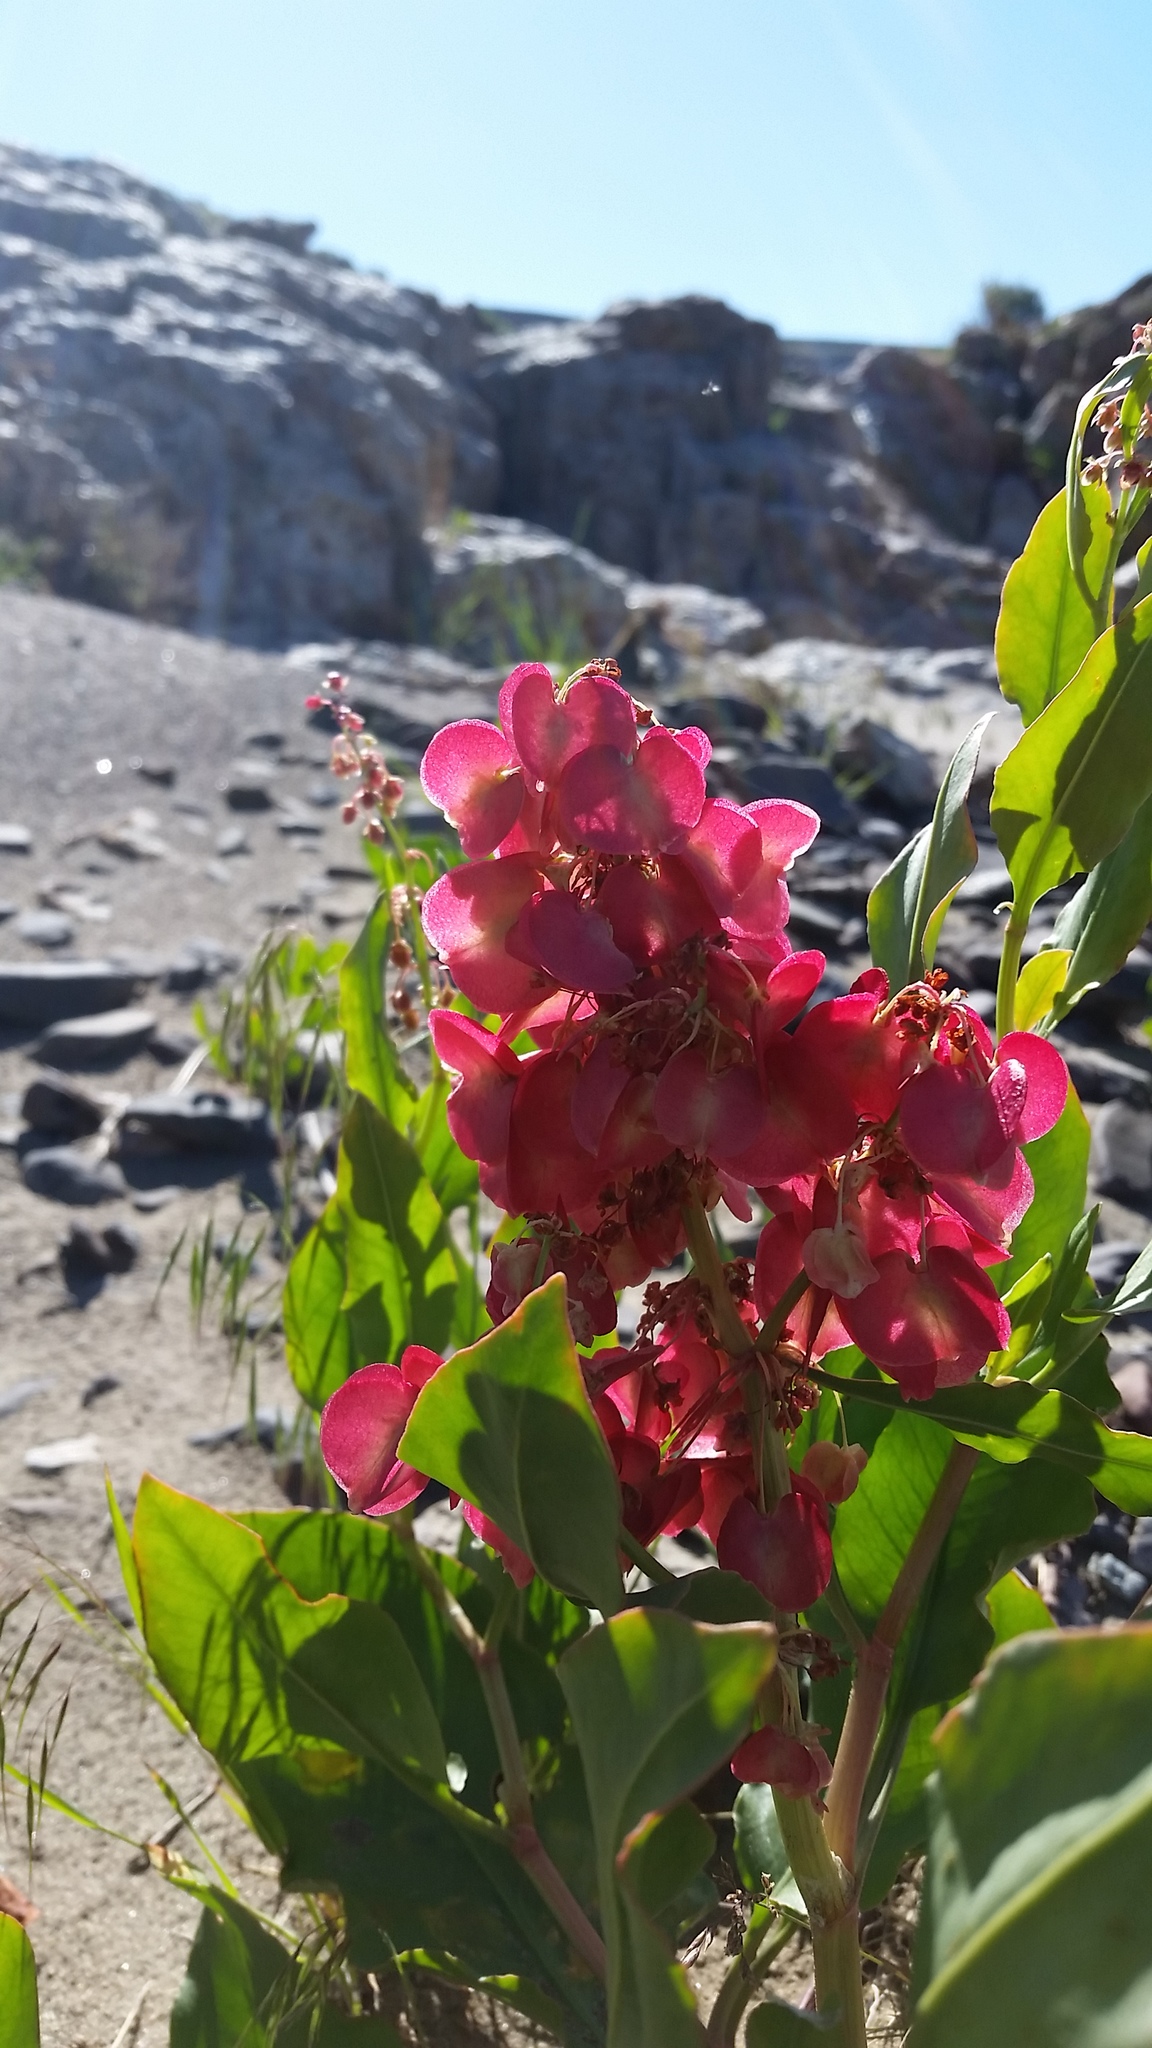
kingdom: Plantae
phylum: Tracheophyta
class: Magnoliopsida
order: Caryophyllales
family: Polygonaceae
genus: Rumex
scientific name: Rumex venosus
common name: Winged dock
